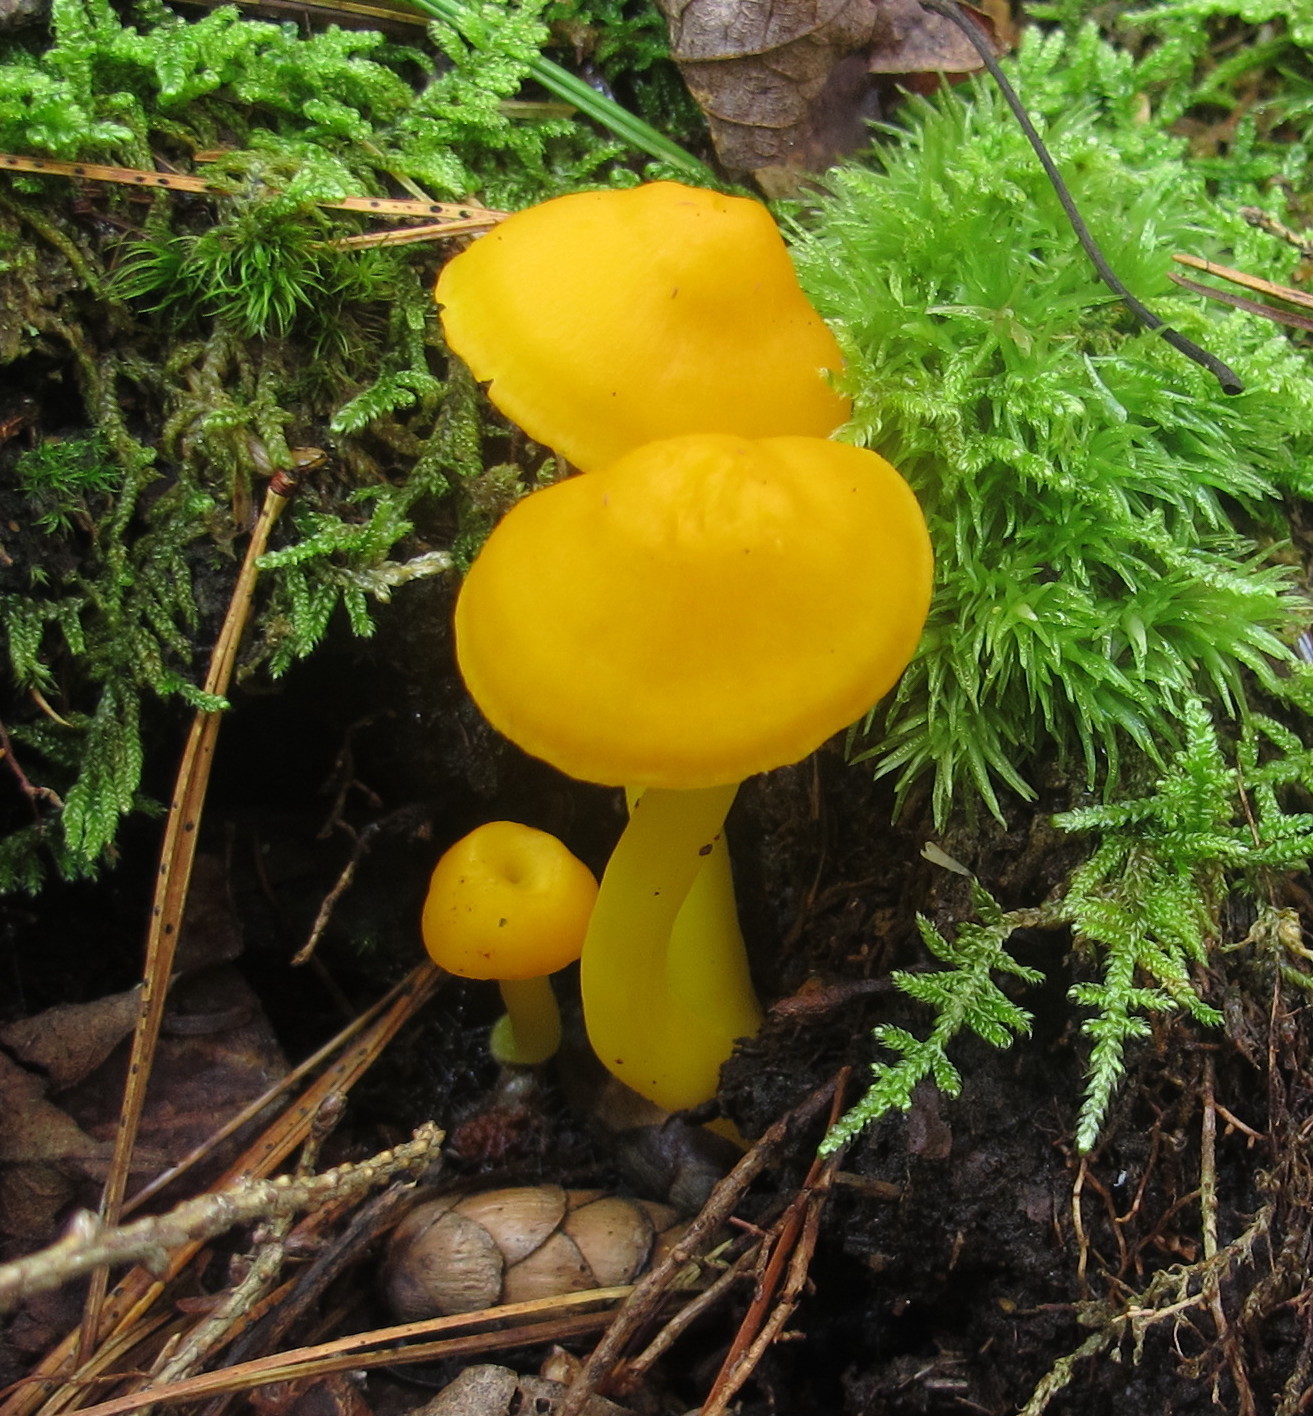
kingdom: Fungi
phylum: Basidiomycota
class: Agaricomycetes
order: Agaricales
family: Hygrophoraceae
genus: Humidicutis
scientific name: Humidicutis marginata
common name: Orange gilled waxcap
